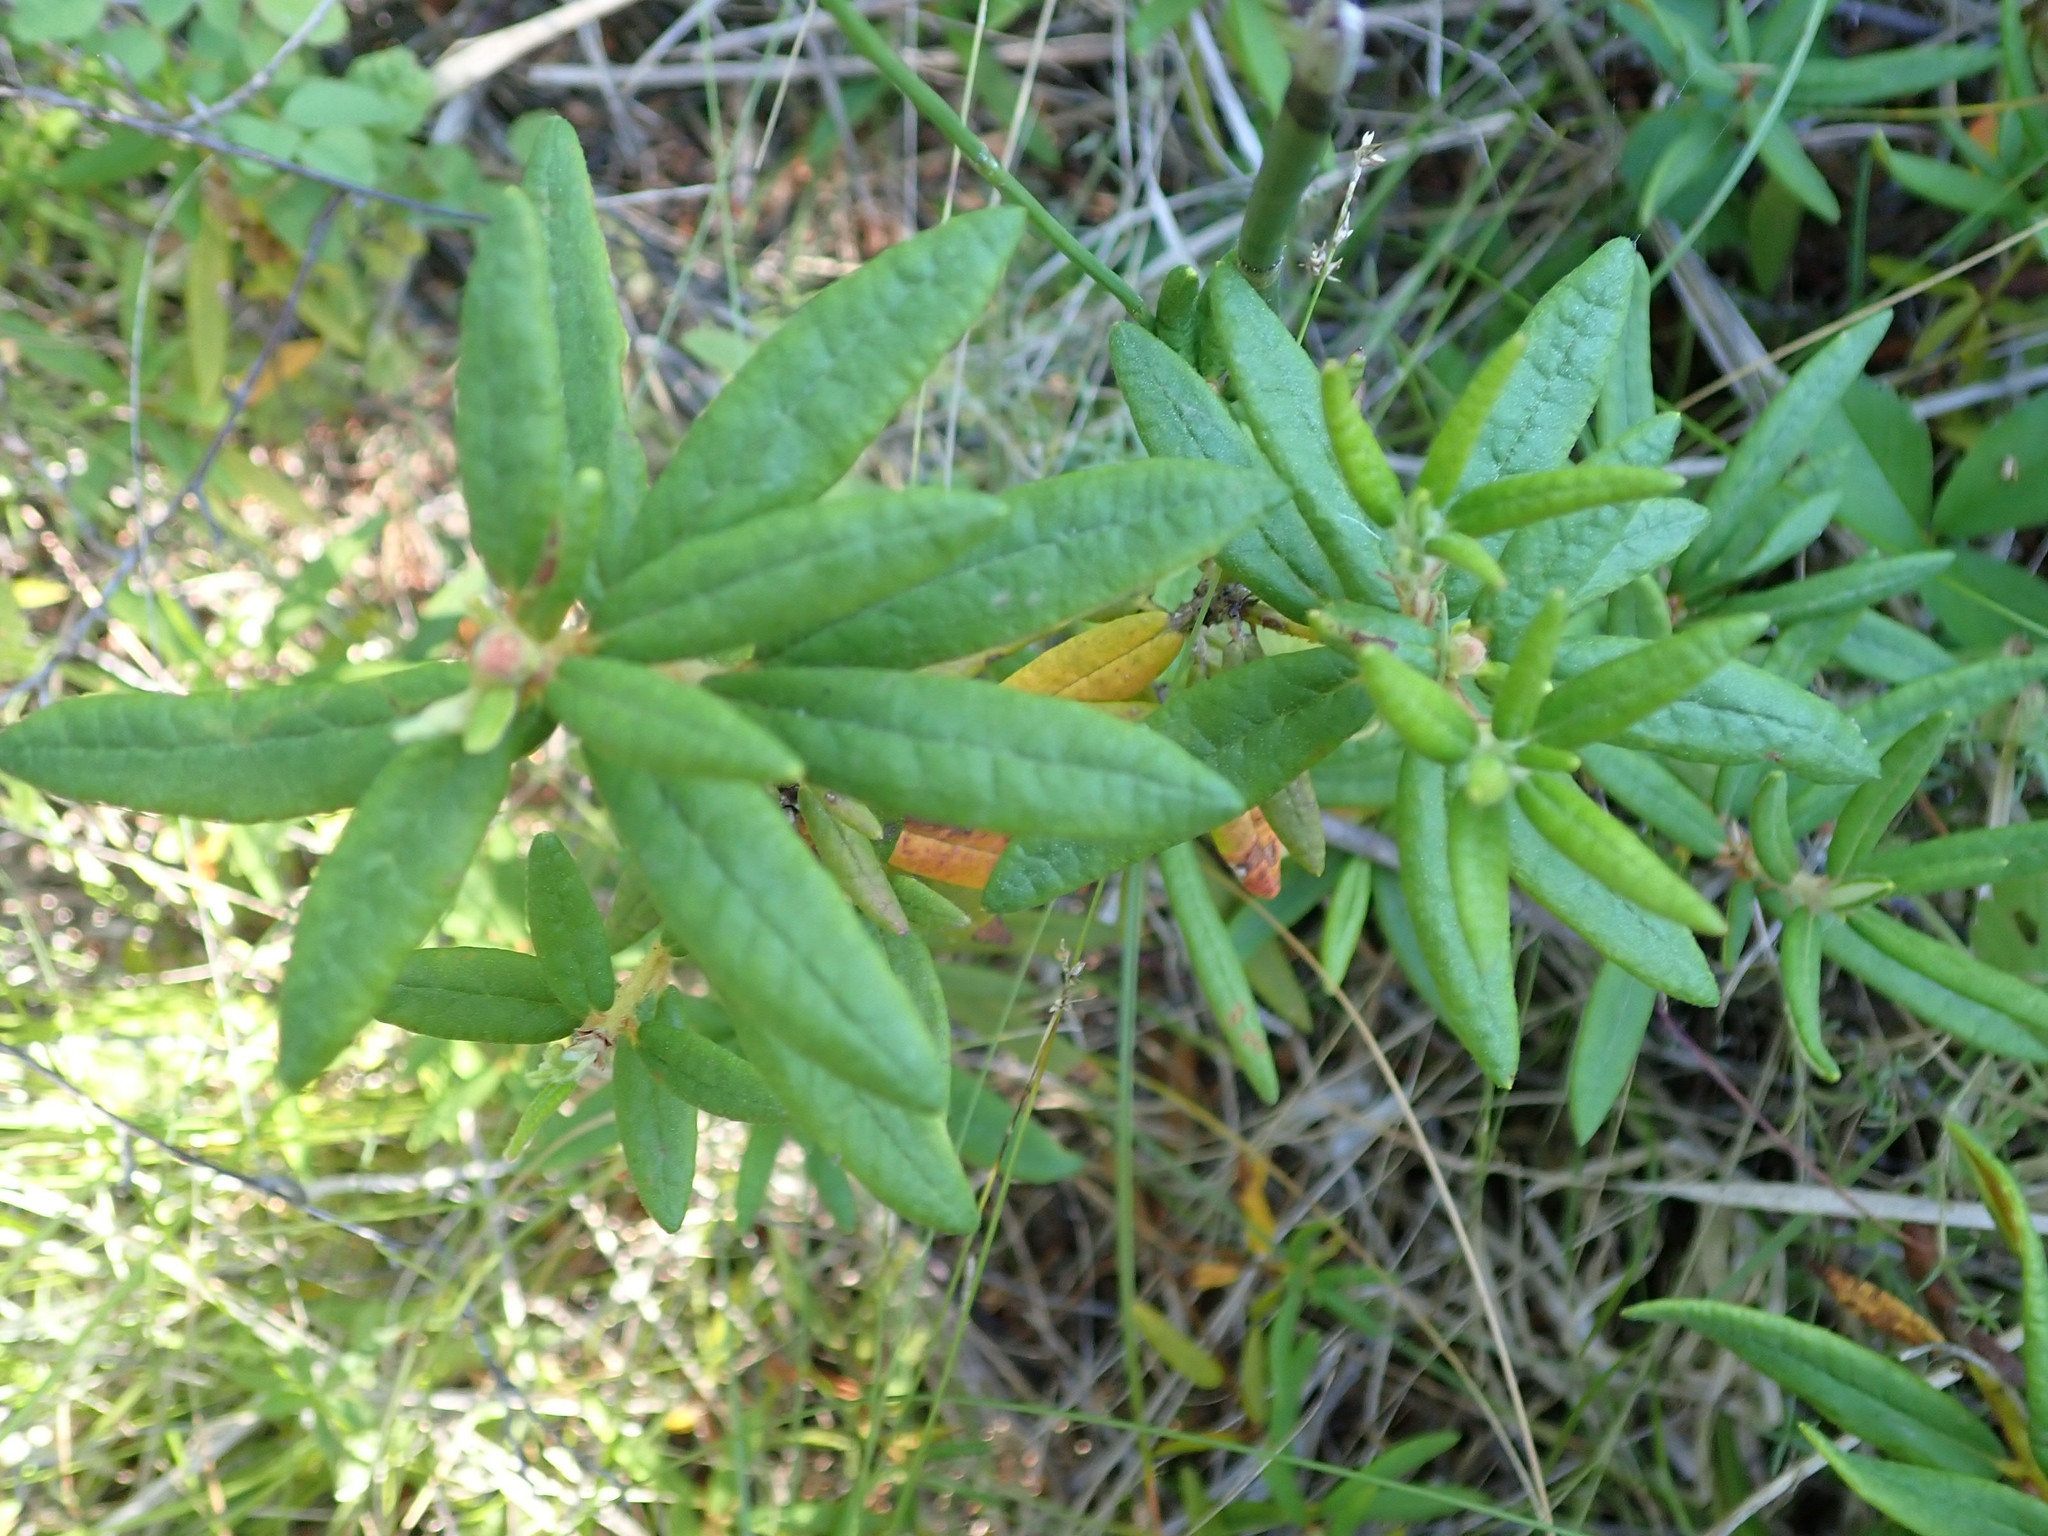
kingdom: Plantae
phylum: Tracheophyta
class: Magnoliopsida
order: Ericales
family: Ericaceae
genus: Rhododendron
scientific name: Rhododendron groenlandicum
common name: Bog labrador tea
